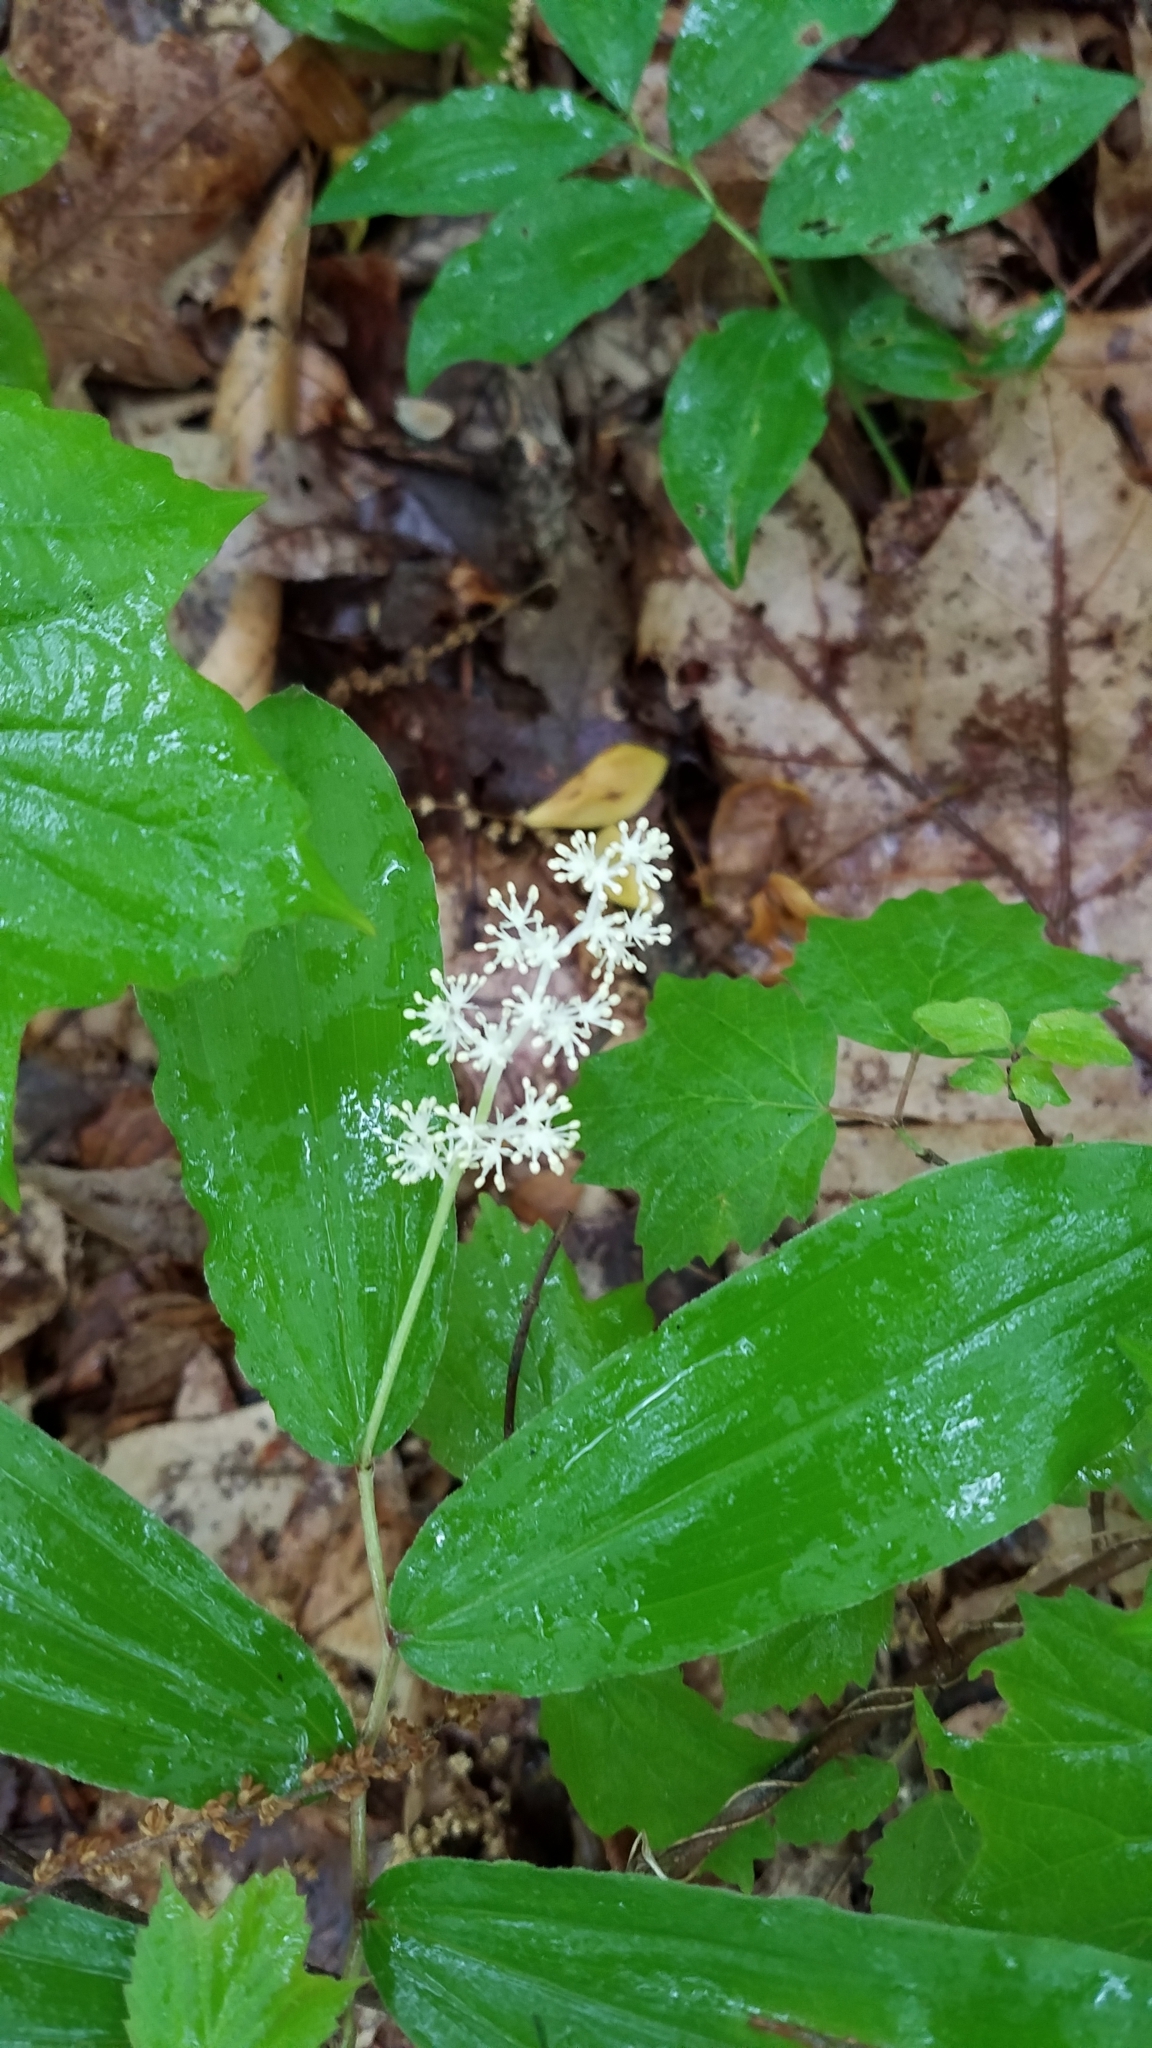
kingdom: Plantae
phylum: Tracheophyta
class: Liliopsida
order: Asparagales
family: Asparagaceae
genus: Maianthemum
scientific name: Maianthemum racemosum
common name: False spikenard
